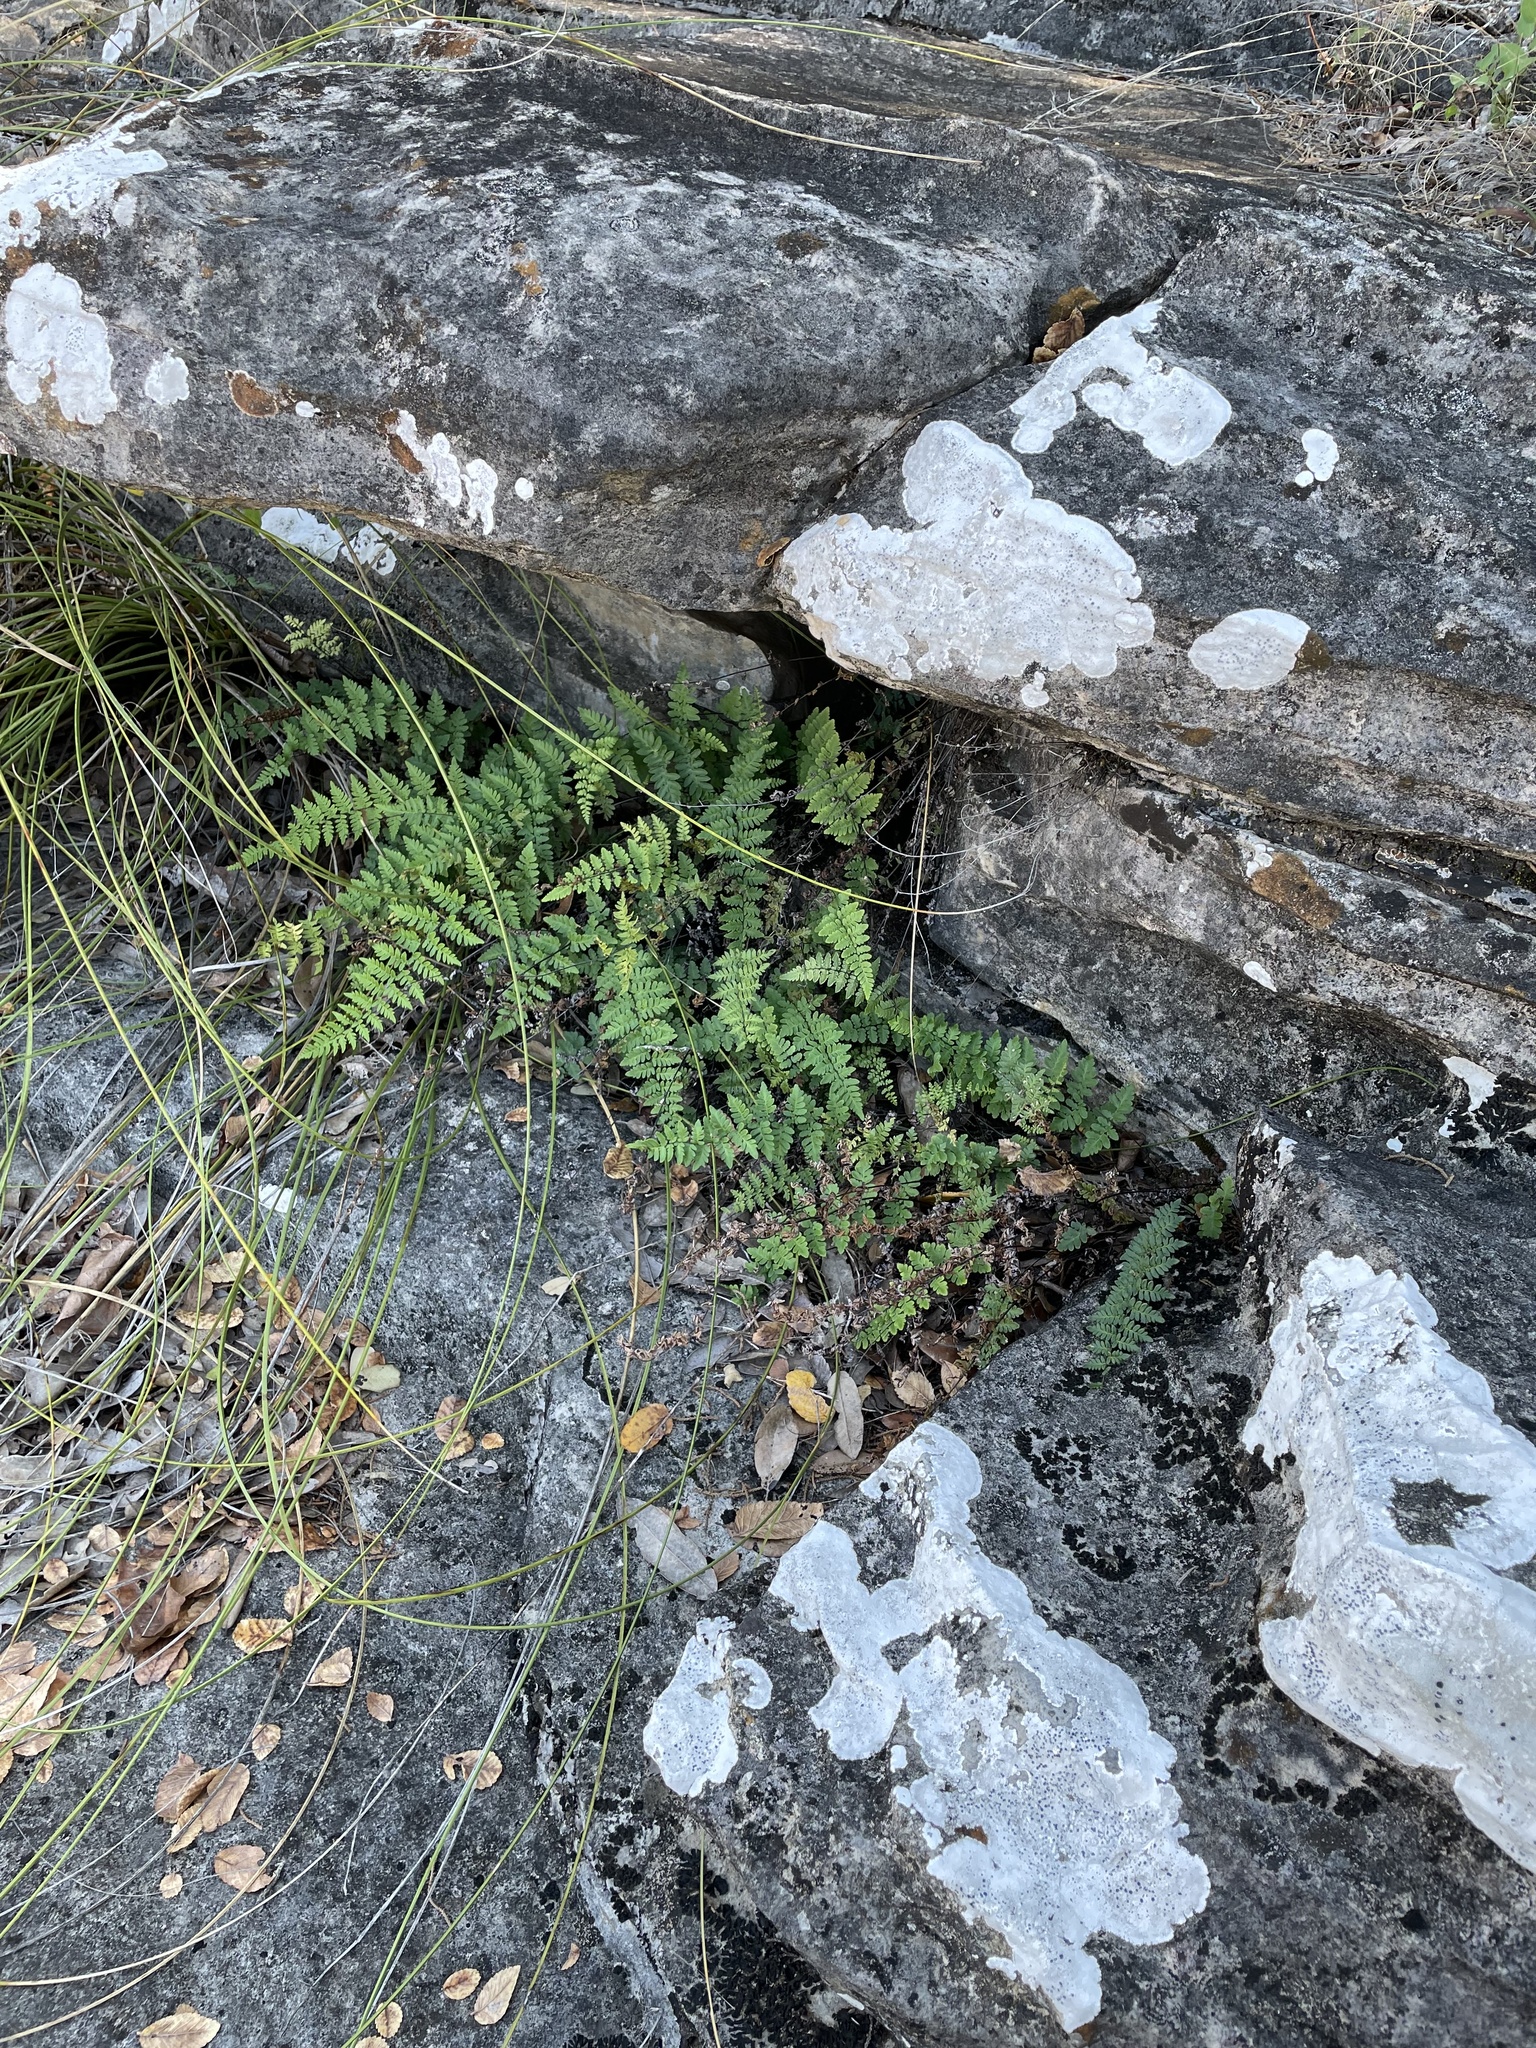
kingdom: Plantae
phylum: Tracheophyta
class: Polypodiopsida
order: Polypodiales
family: Pteridaceae
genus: Myriopteris
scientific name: Myriopteris alabamensis
